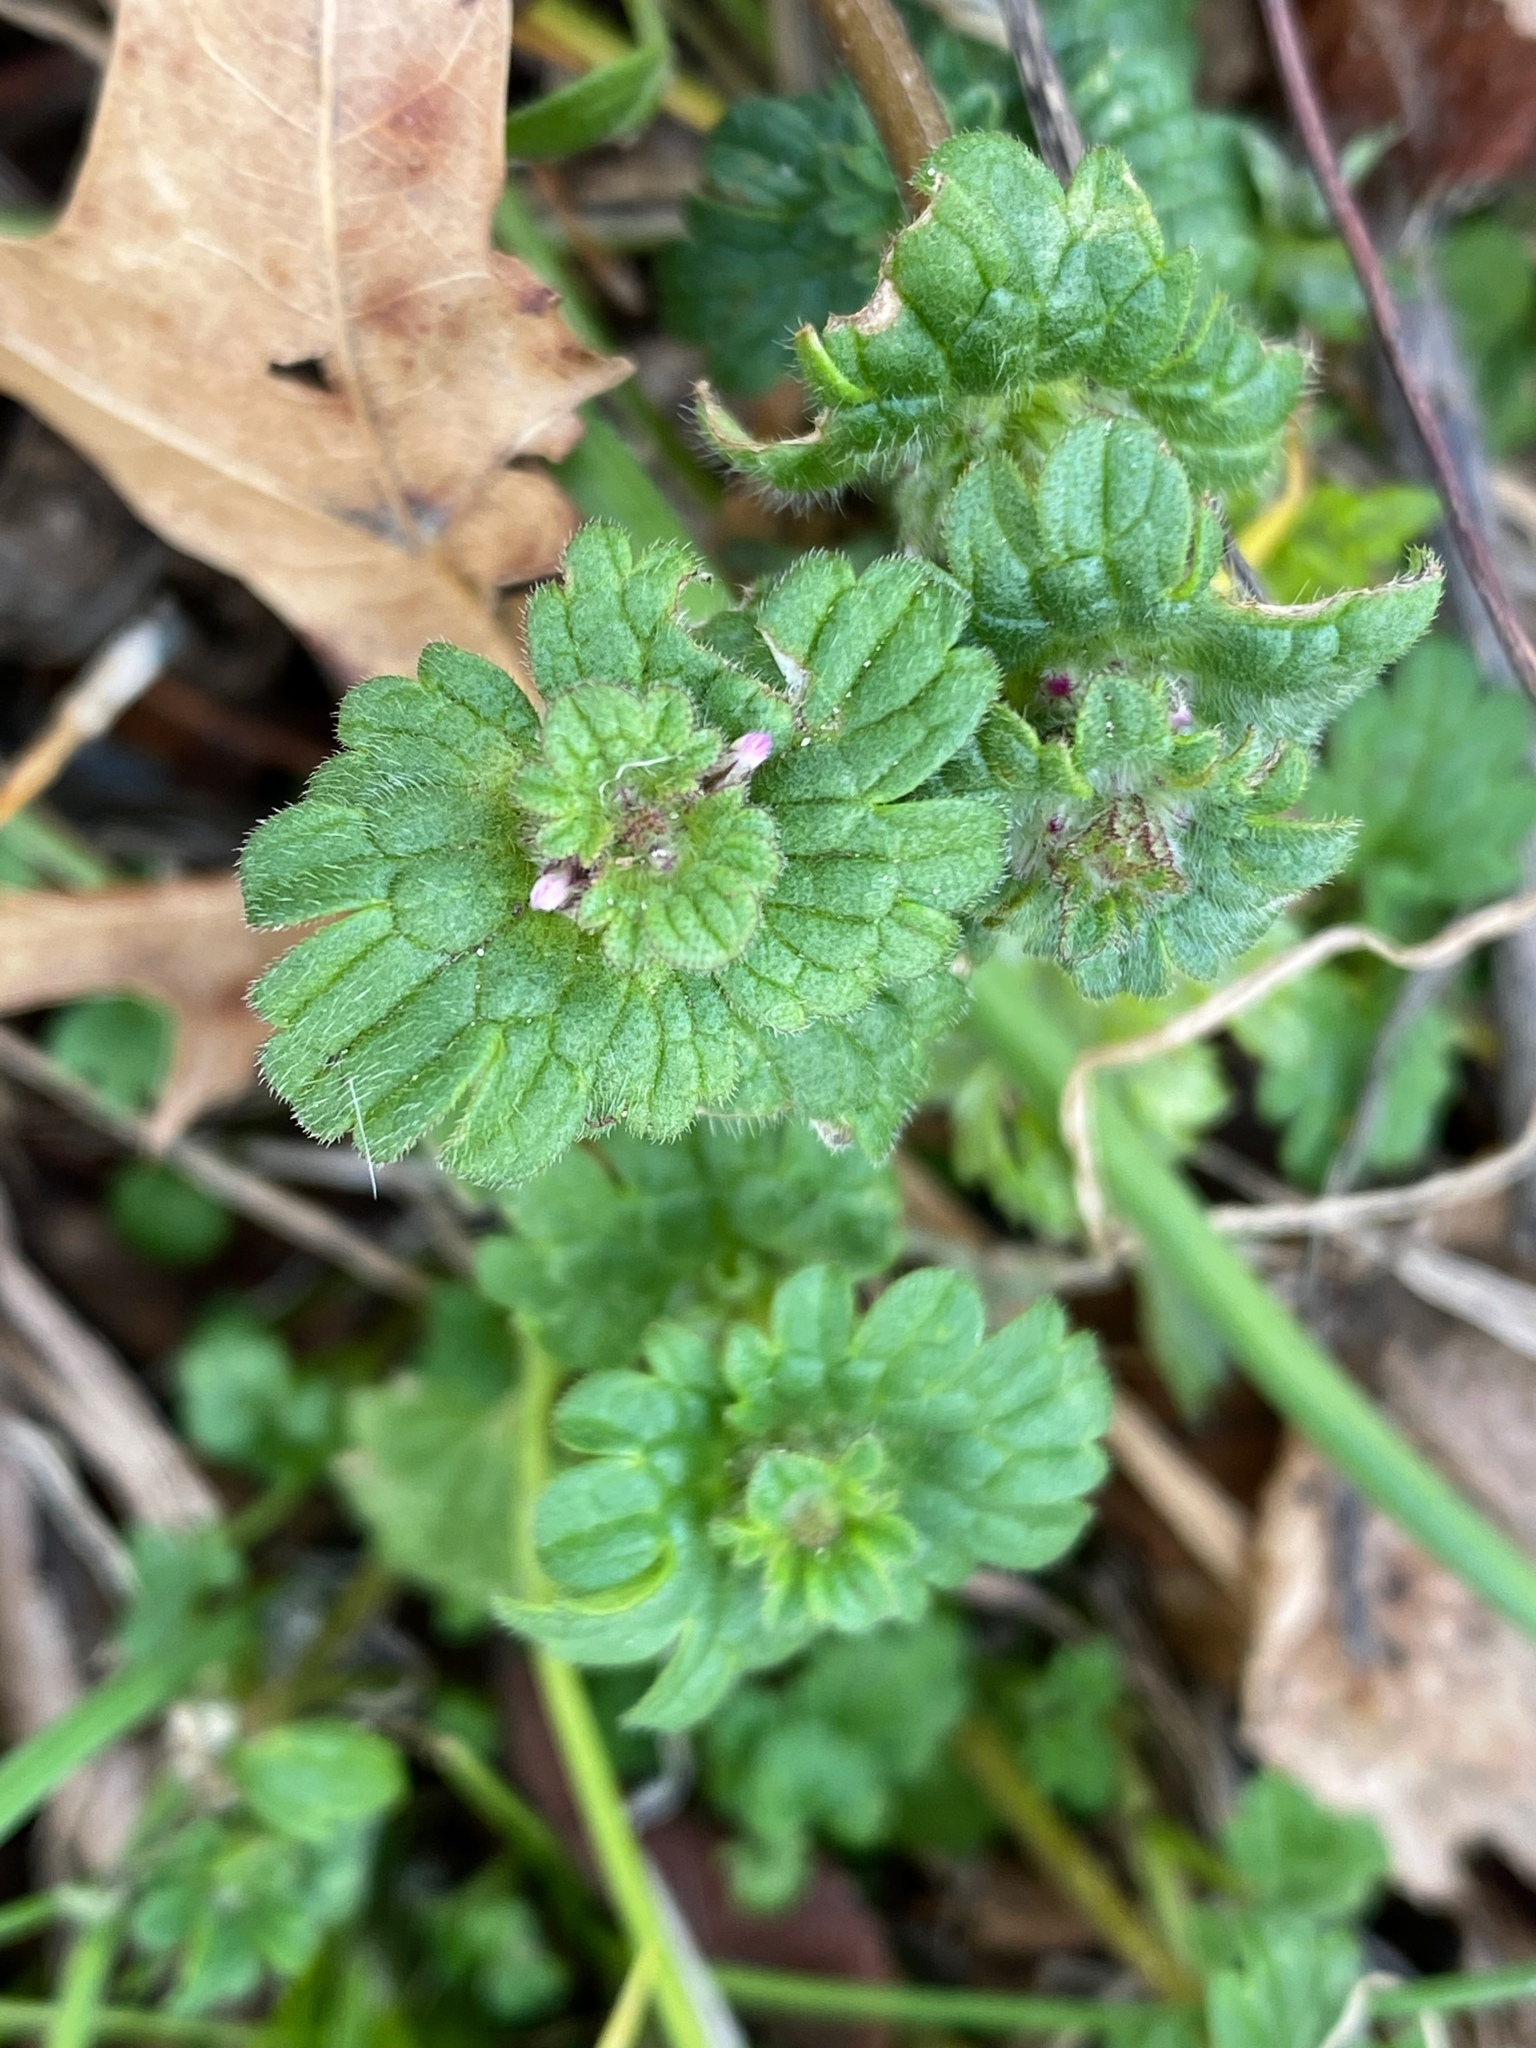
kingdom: Plantae
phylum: Tracheophyta
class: Magnoliopsida
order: Lamiales
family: Lamiaceae
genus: Lamium
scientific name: Lamium amplexicaule
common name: Henbit dead-nettle
